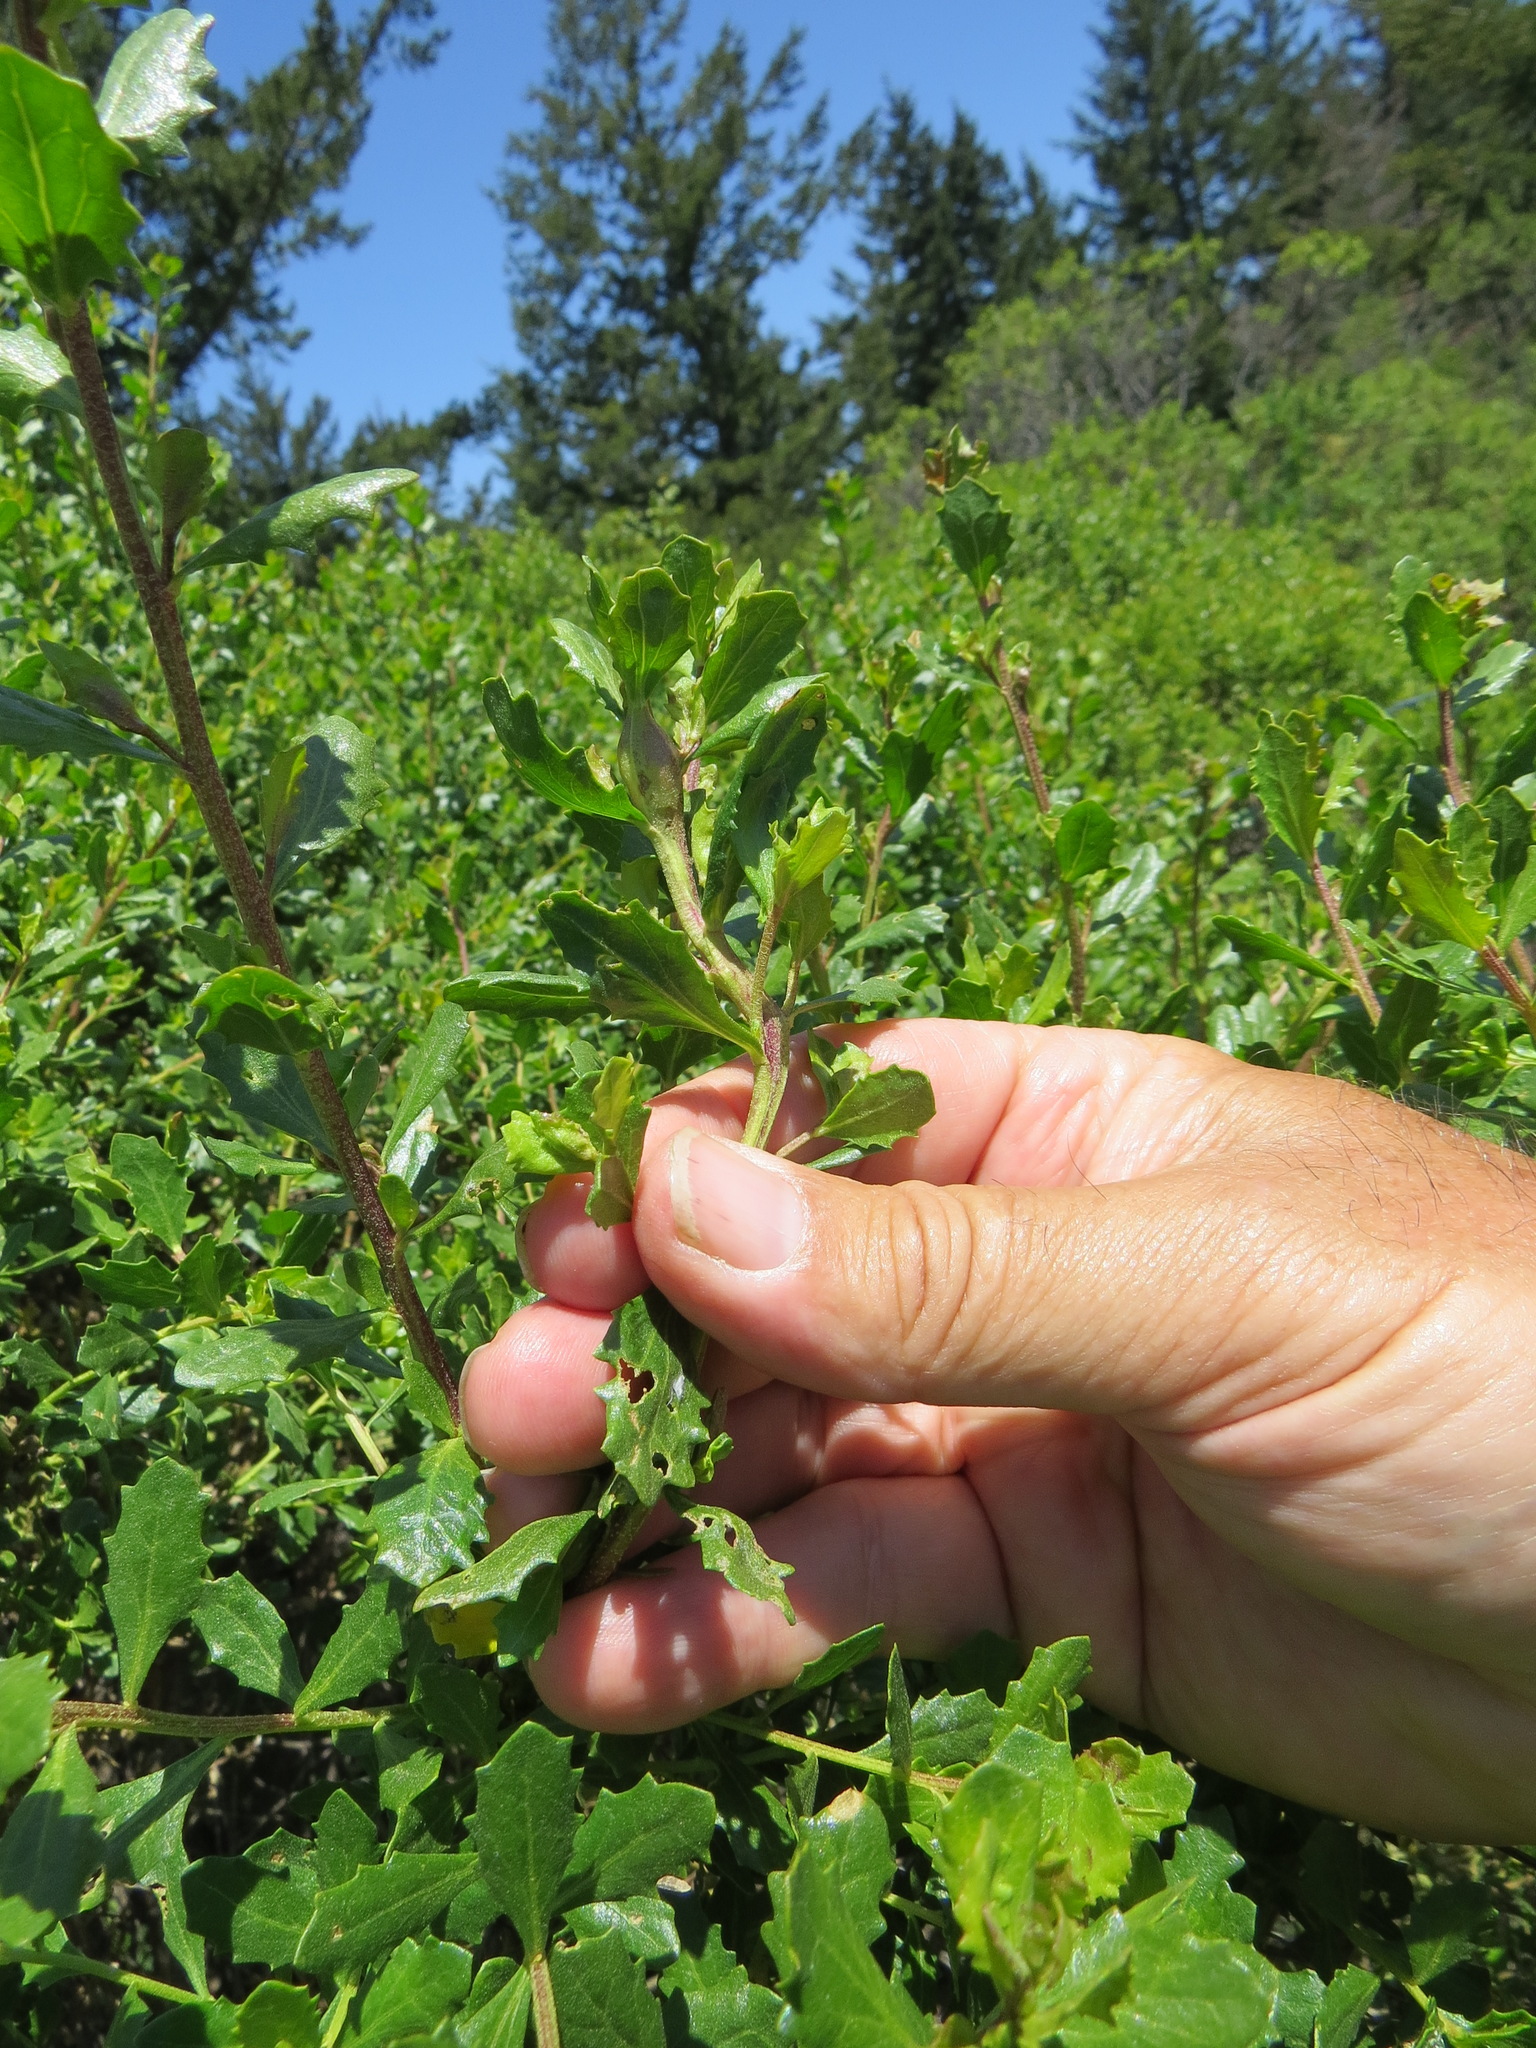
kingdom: Animalia
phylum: Arthropoda
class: Insecta
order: Diptera
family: Cecidomyiidae
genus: Rhopalomyia
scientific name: Rhopalomyia baccharis
